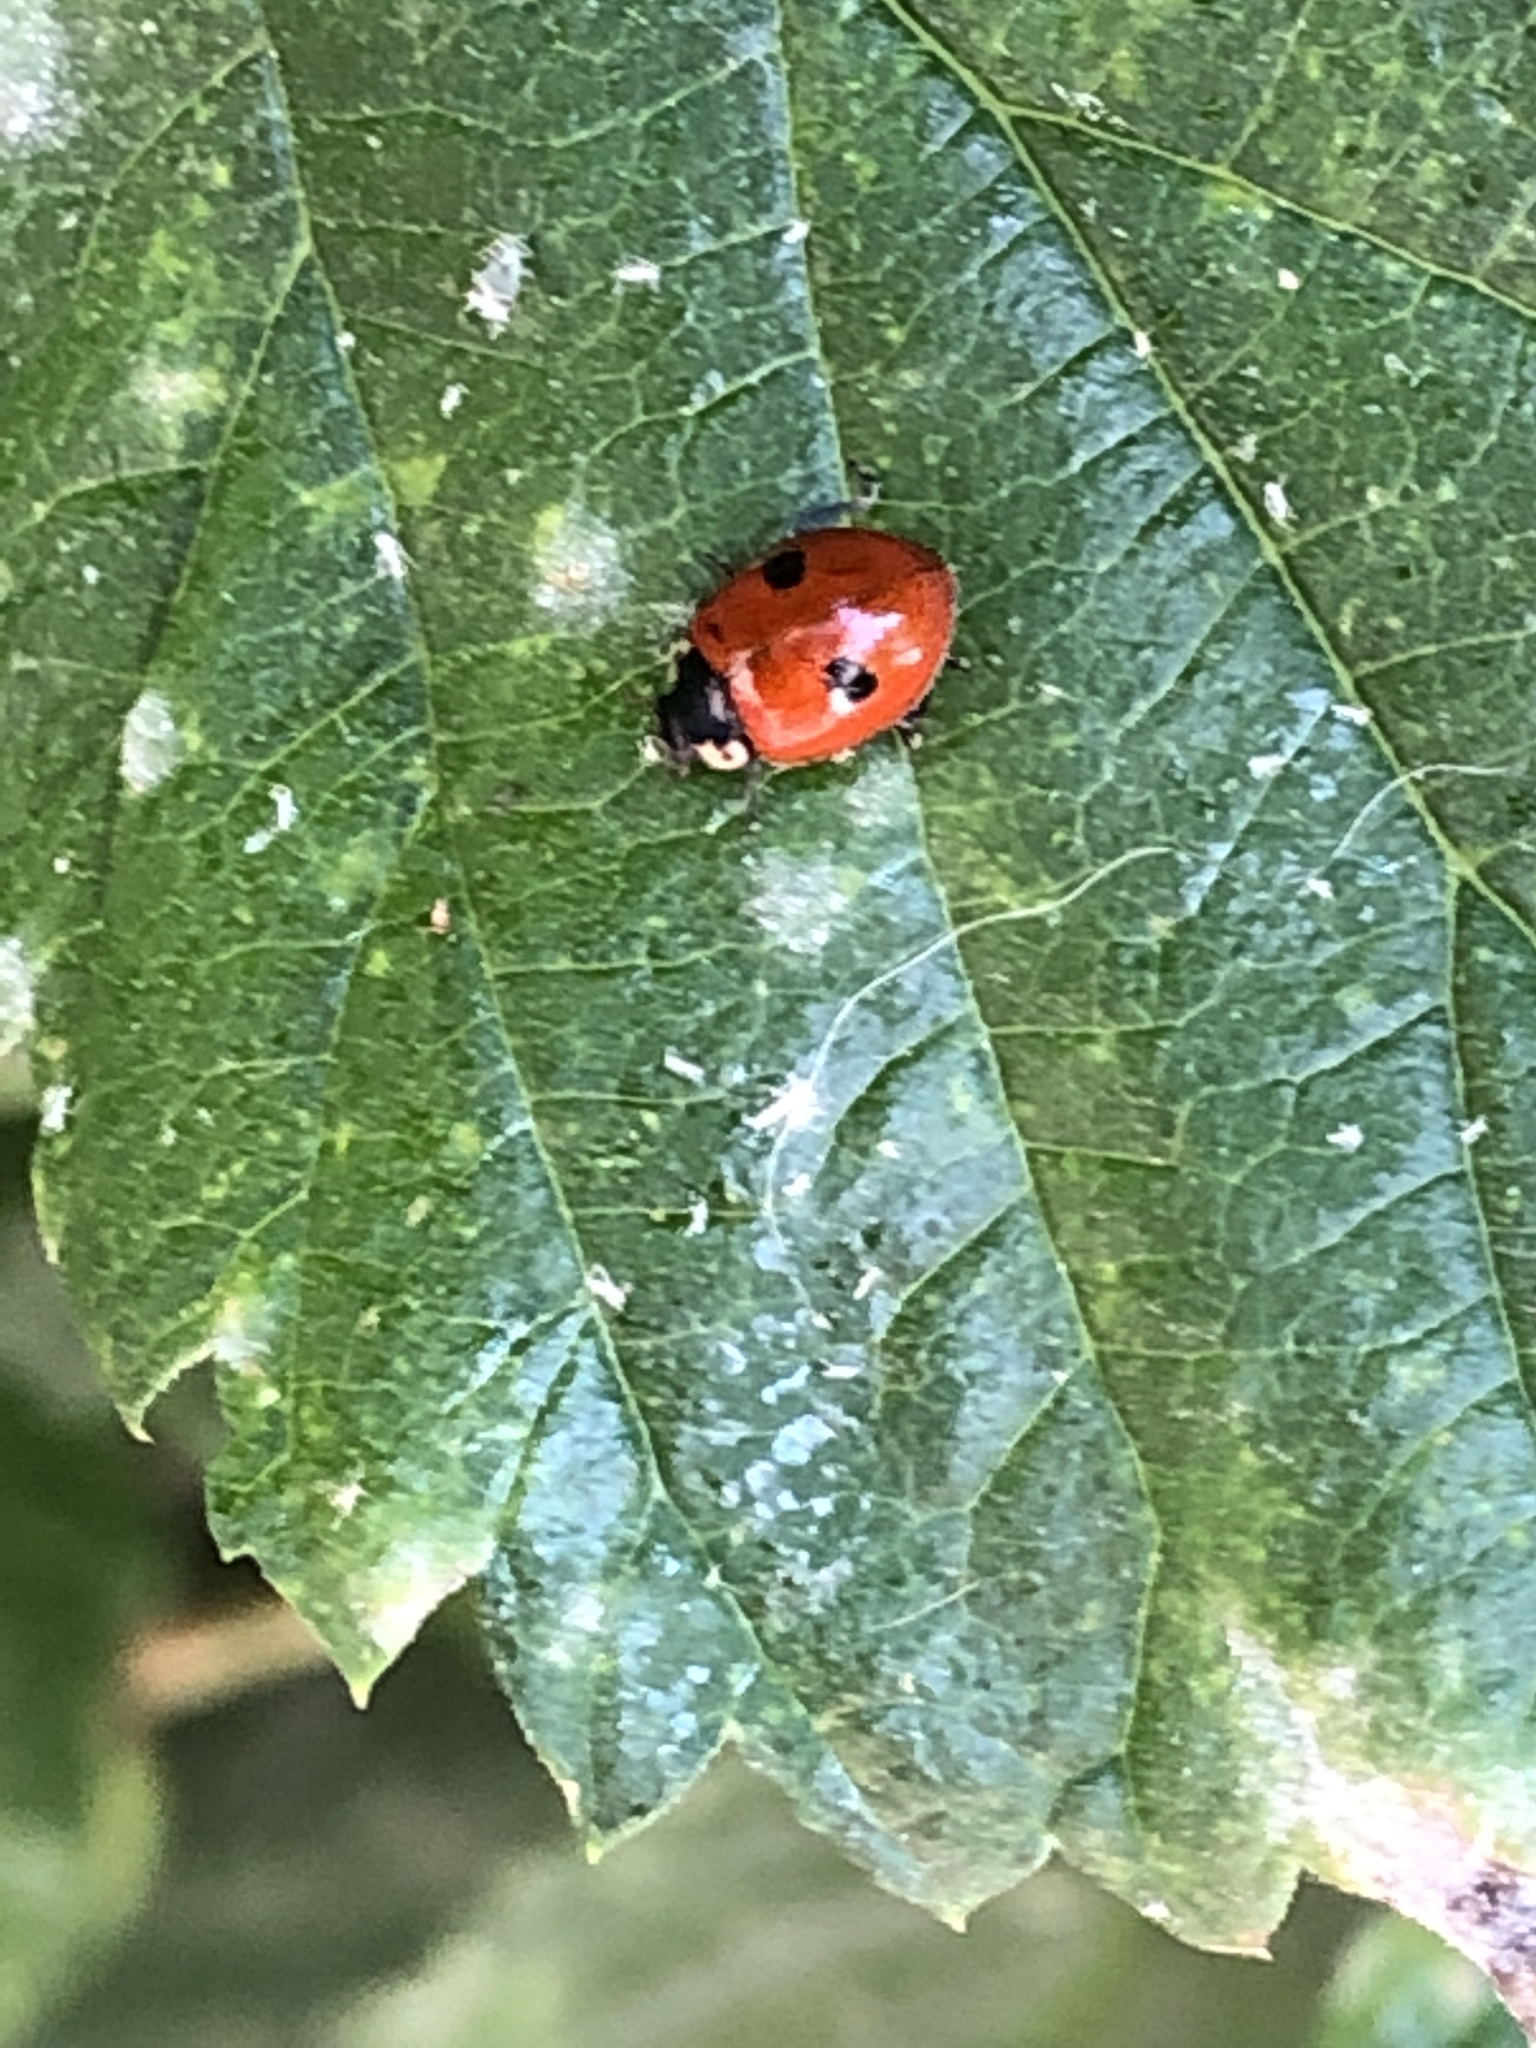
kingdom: Animalia
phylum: Arthropoda
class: Insecta
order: Coleoptera
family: Coccinellidae
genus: Adalia
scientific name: Adalia bipunctata
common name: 2-spot ladybird
